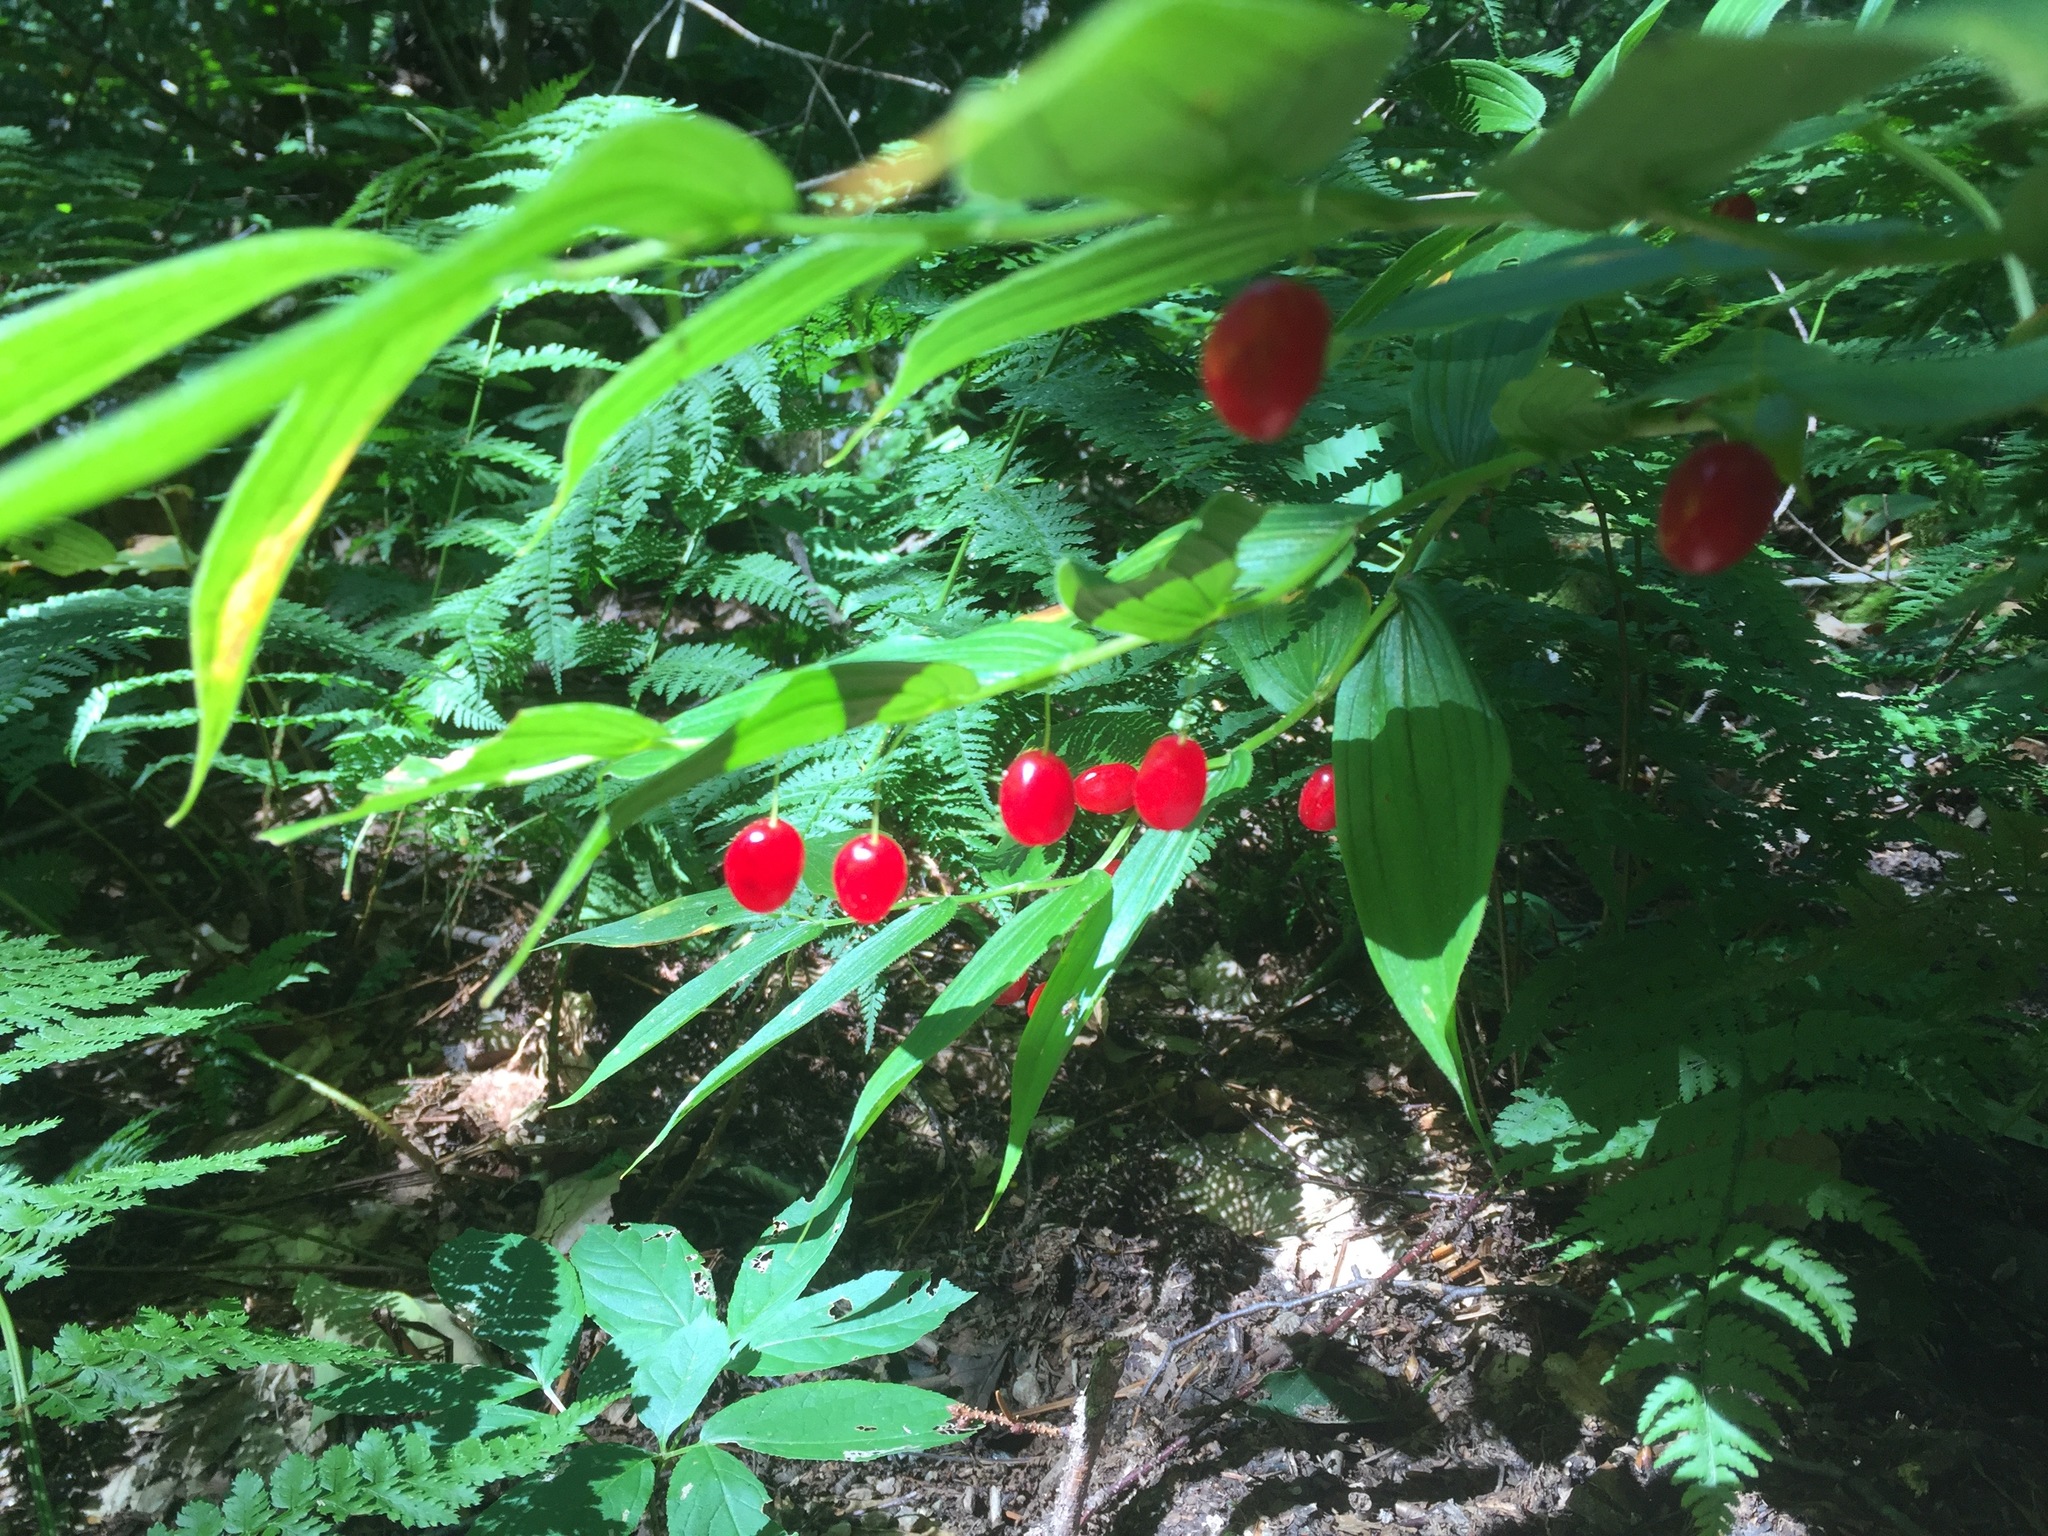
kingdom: Plantae
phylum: Tracheophyta
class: Liliopsida
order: Liliales
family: Liliaceae
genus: Streptopus
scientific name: Streptopus lanceolatus
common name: Rose mandarin
